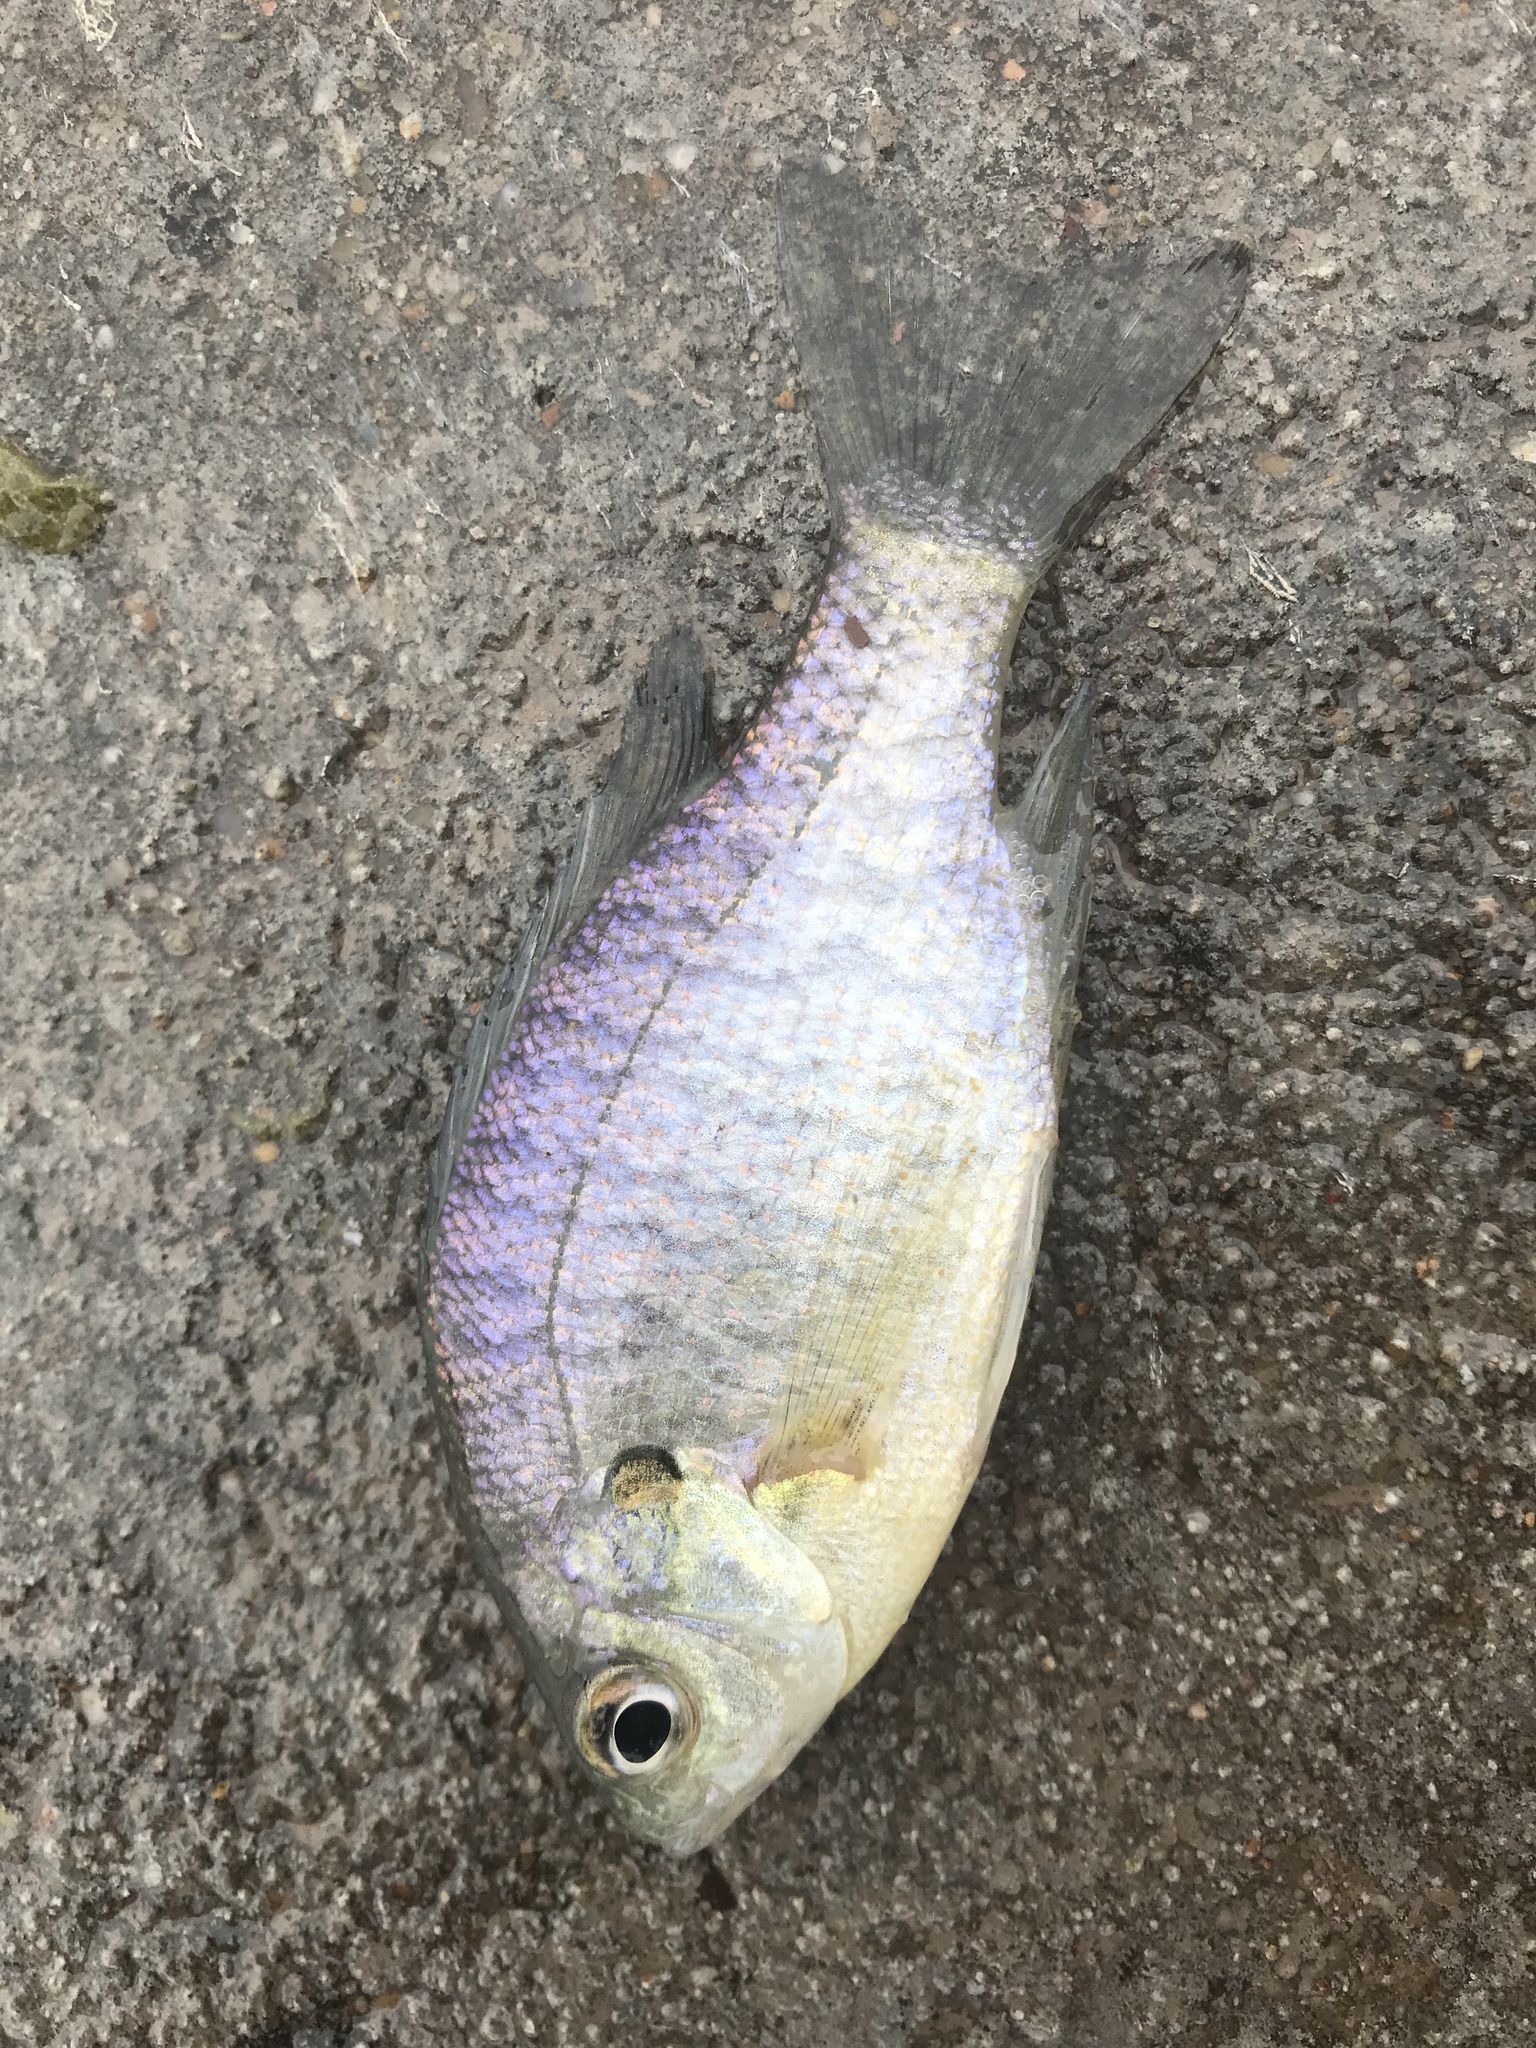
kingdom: Animalia
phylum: Chordata
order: Perciformes
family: Centrarchidae
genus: Lepomis
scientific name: Lepomis macrochirus
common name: Bluegill
